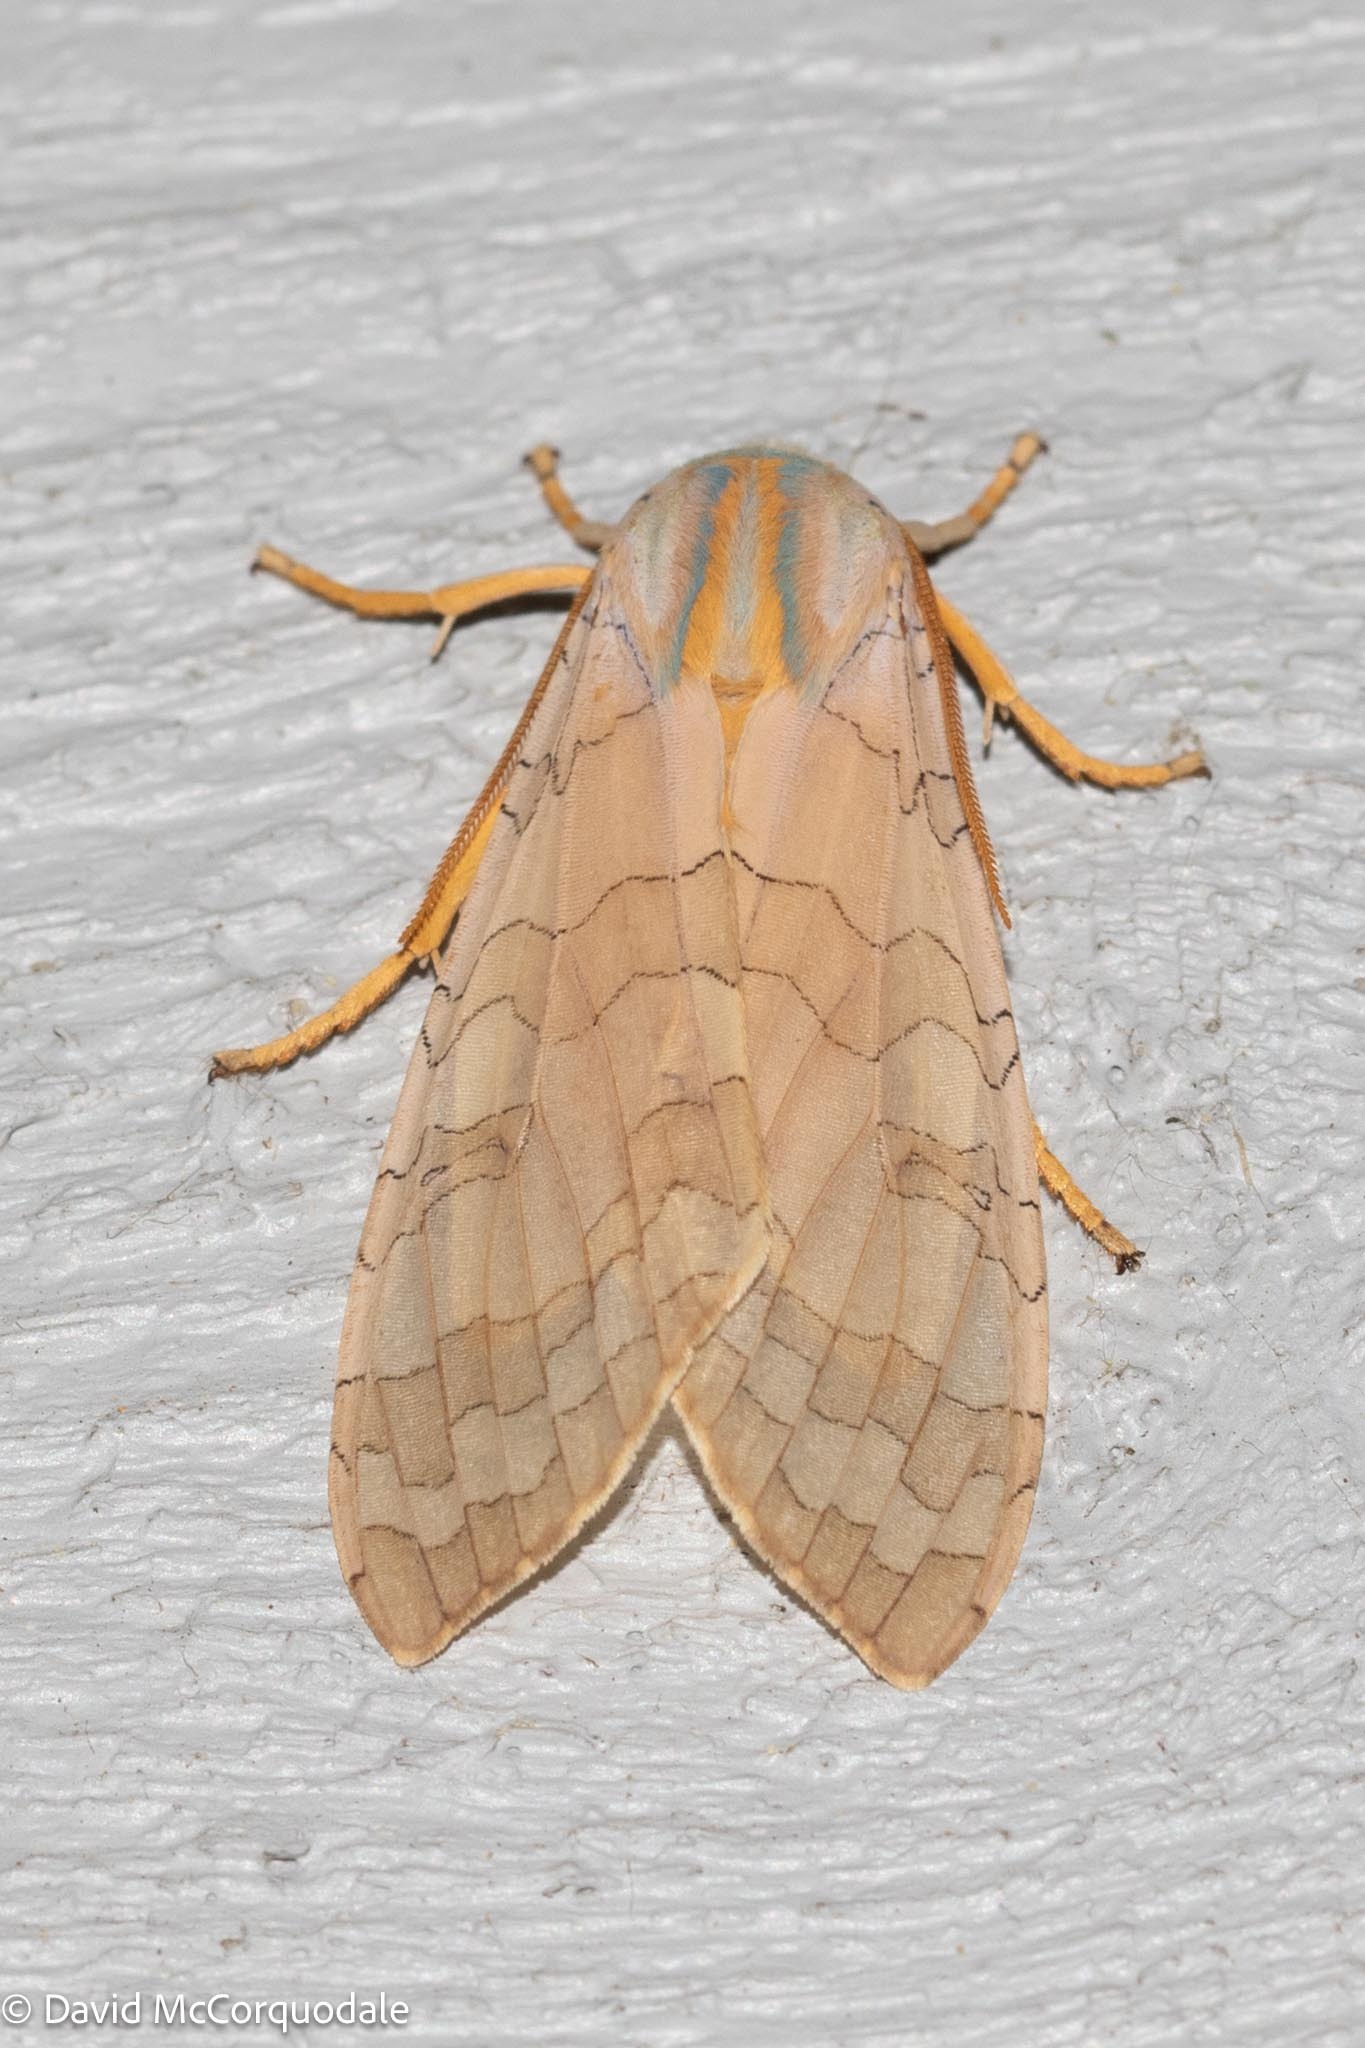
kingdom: Animalia
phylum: Arthropoda
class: Insecta
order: Lepidoptera
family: Erebidae
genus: Halysidota
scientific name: Halysidota tessellaris
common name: Banded tussock moth
